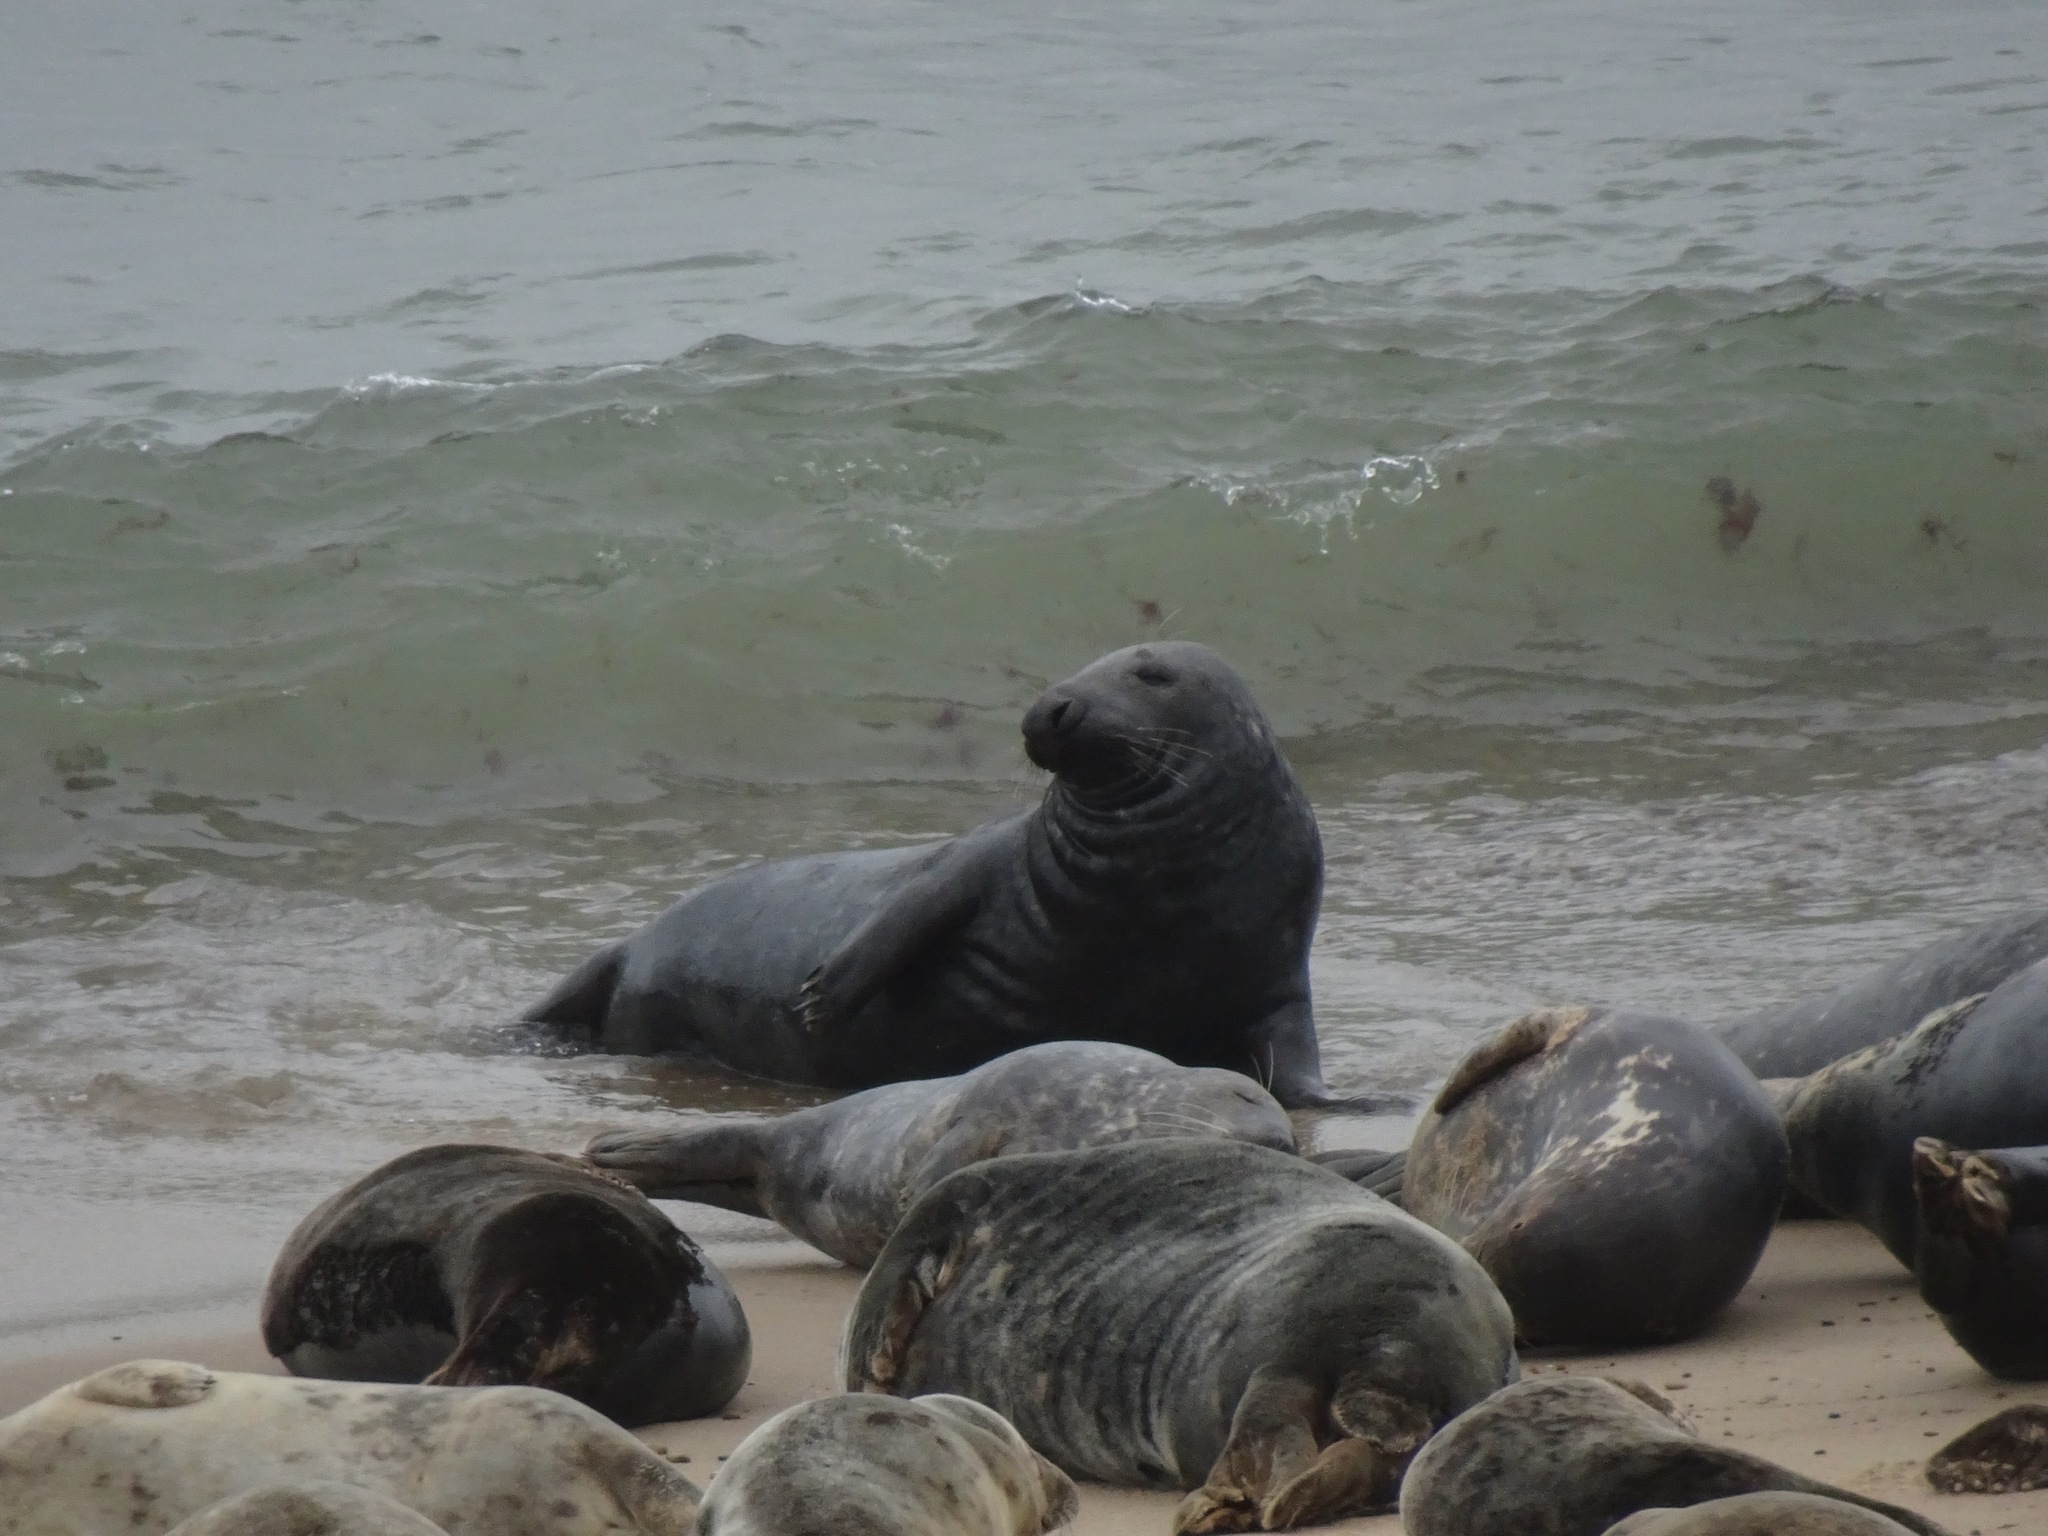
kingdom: Animalia
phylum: Chordata
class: Mammalia
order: Carnivora
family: Phocidae
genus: Halichoerus
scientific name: Halichoerus grypus
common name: Grey seal
